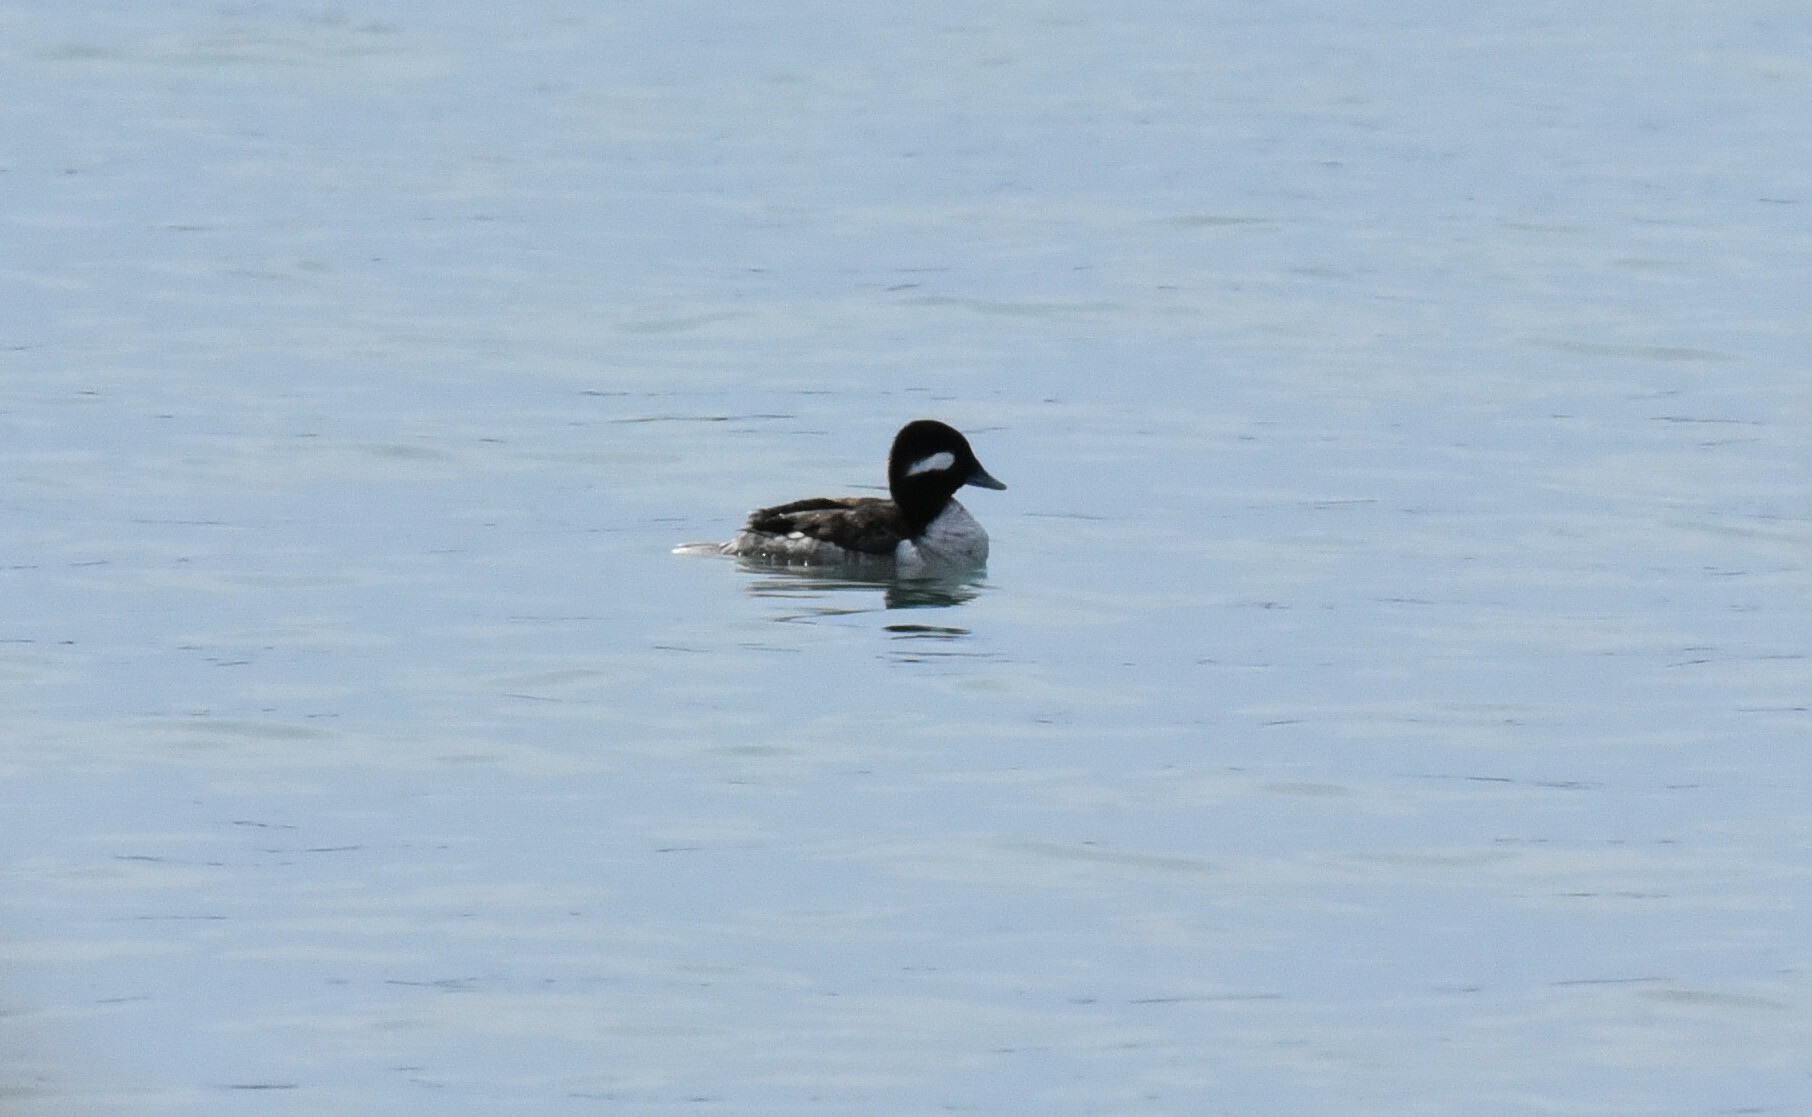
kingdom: Animalia
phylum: Chordata
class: Aves
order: Anseriformes
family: Anatidae
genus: Bucephala
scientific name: Bucephala albeola
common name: Bufflehead
